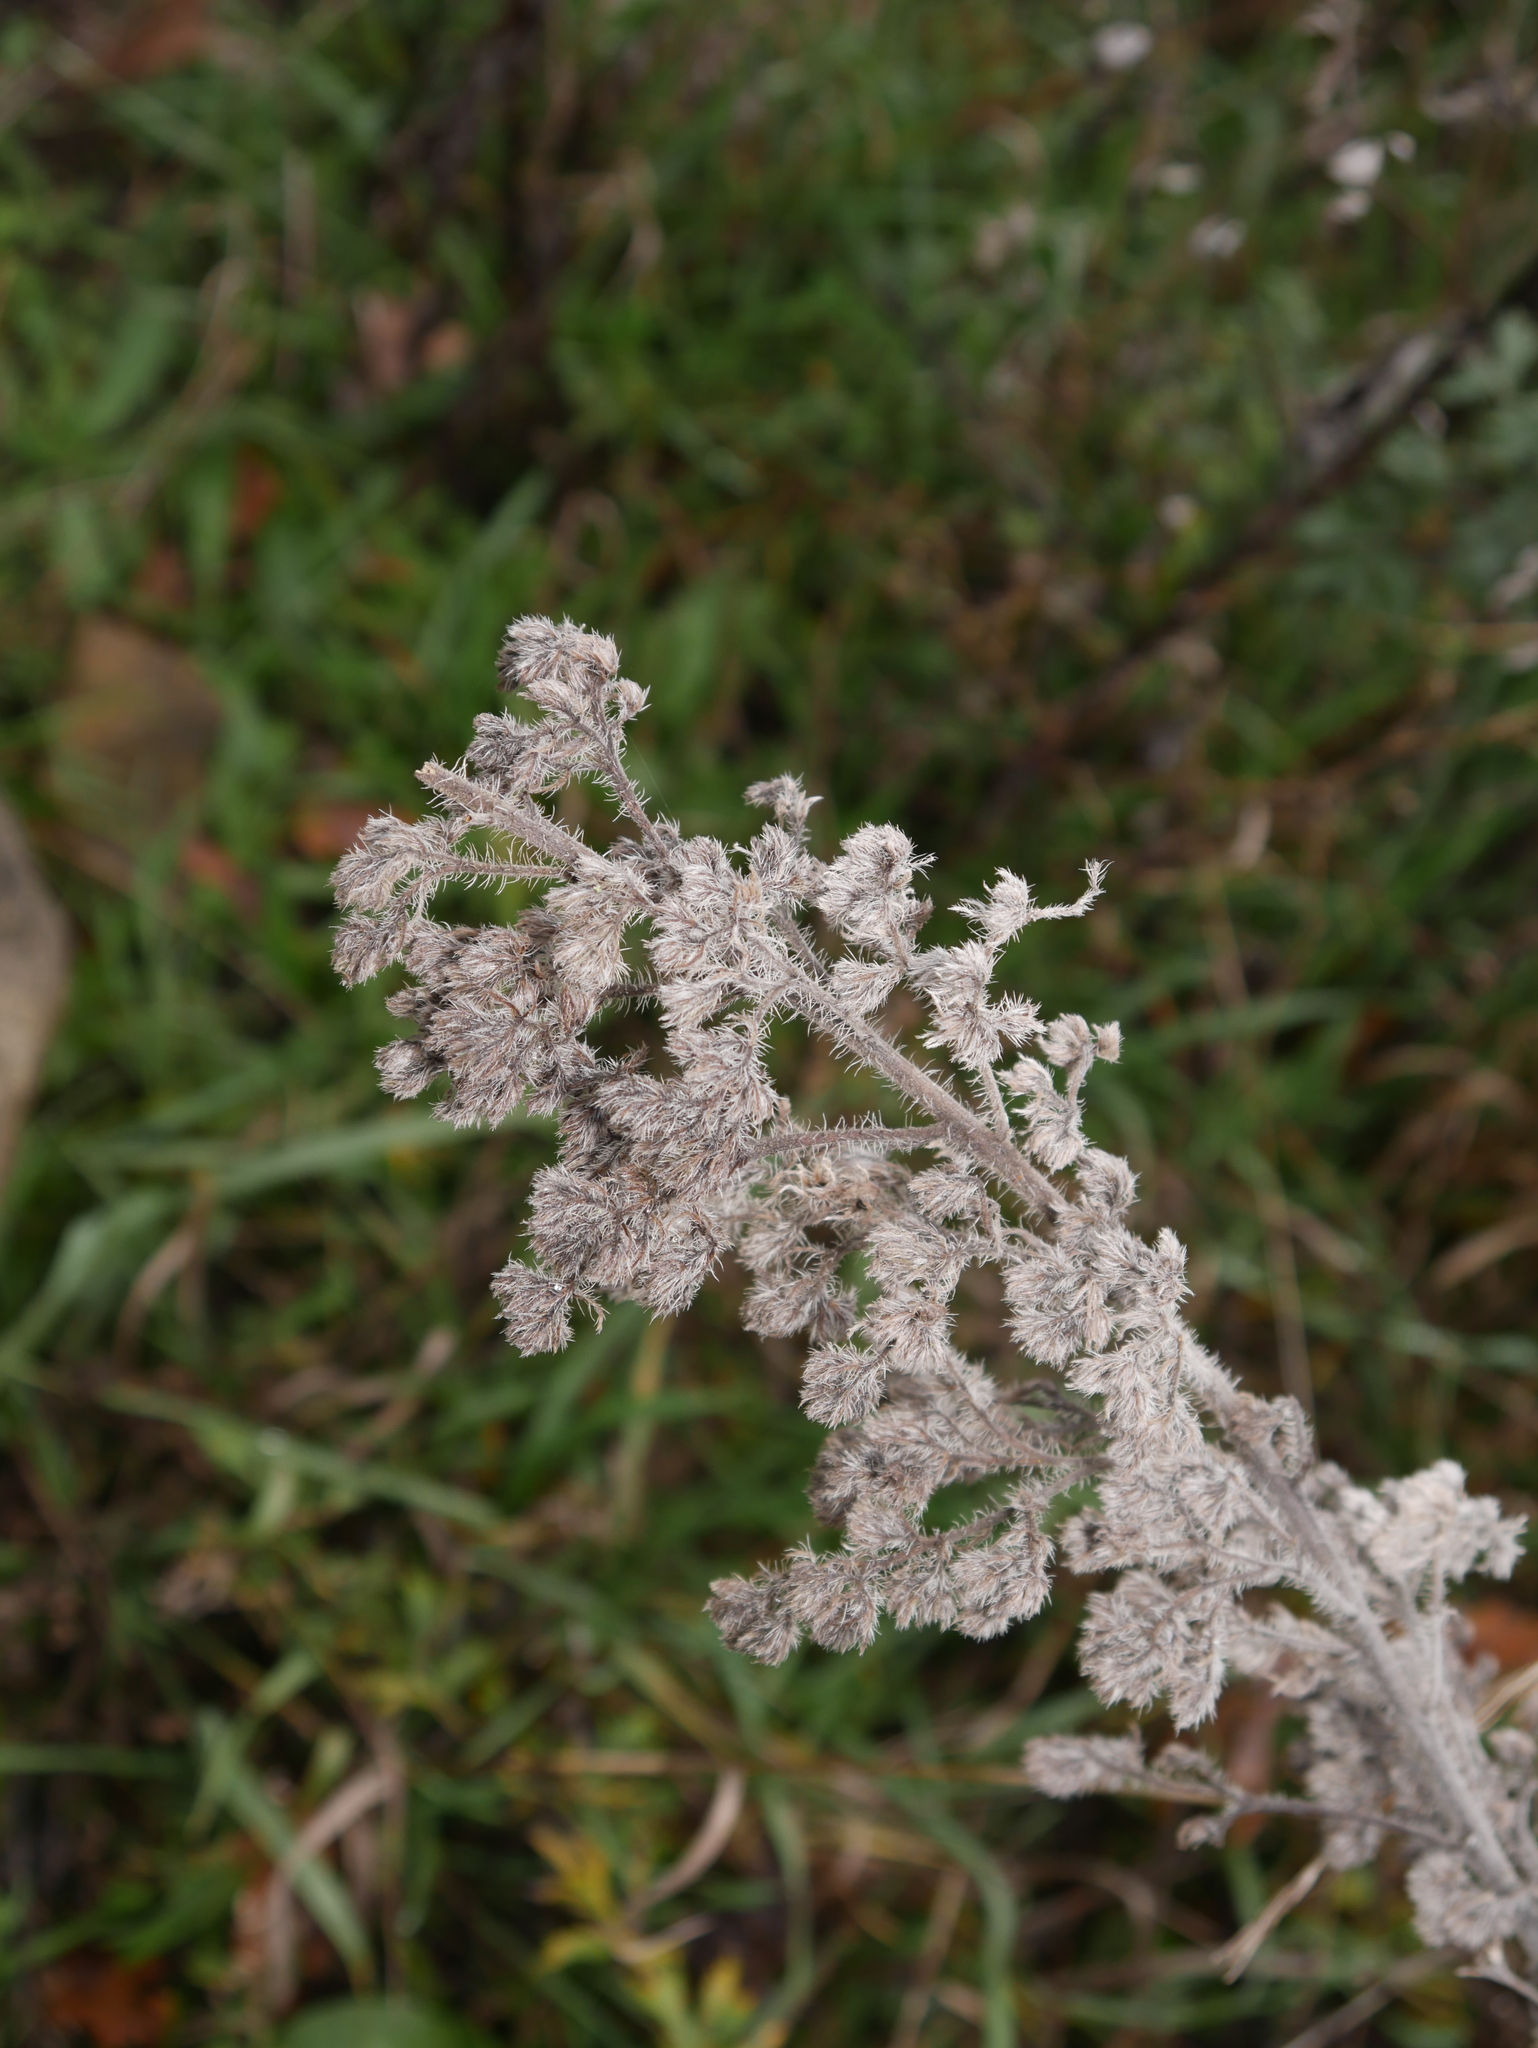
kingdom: Plantae
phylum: Tracheophyta
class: Magnoliopsida
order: Boraginales
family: Boraginaceae
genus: Echium
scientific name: Echium vulgare
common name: Common viper's bugloss
